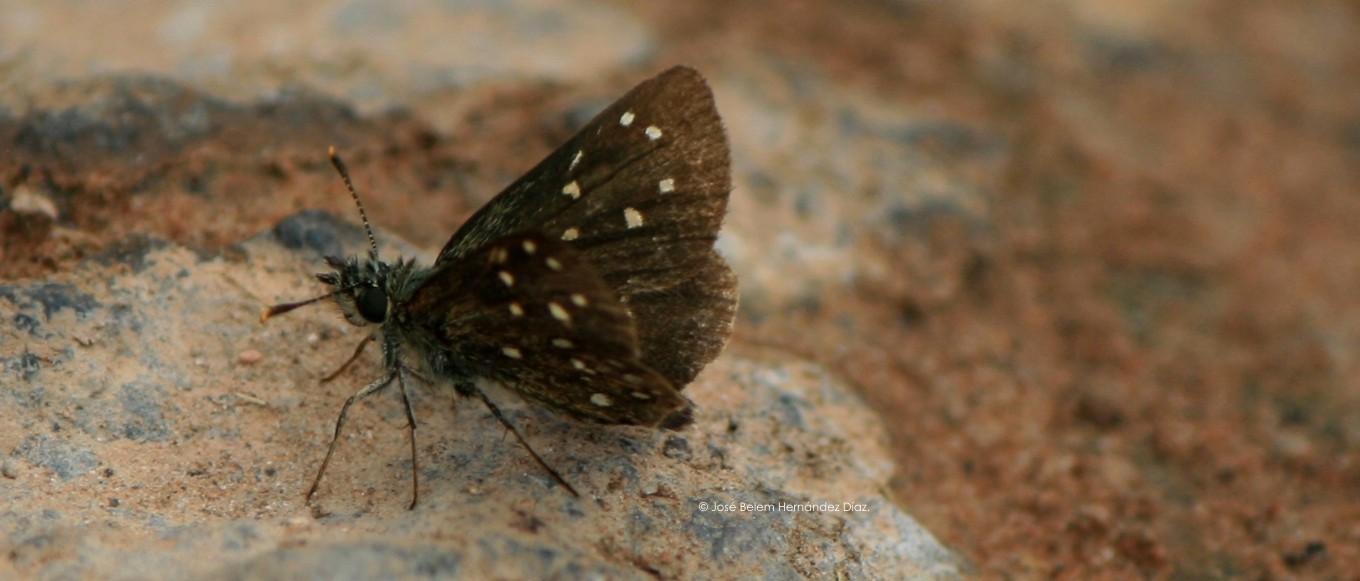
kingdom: Animalia
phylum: Arthropoda
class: Insecta
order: Lepidoptera
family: Hesperiidae
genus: Piruna
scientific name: Piruna aea
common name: Many-spotted skipperling
